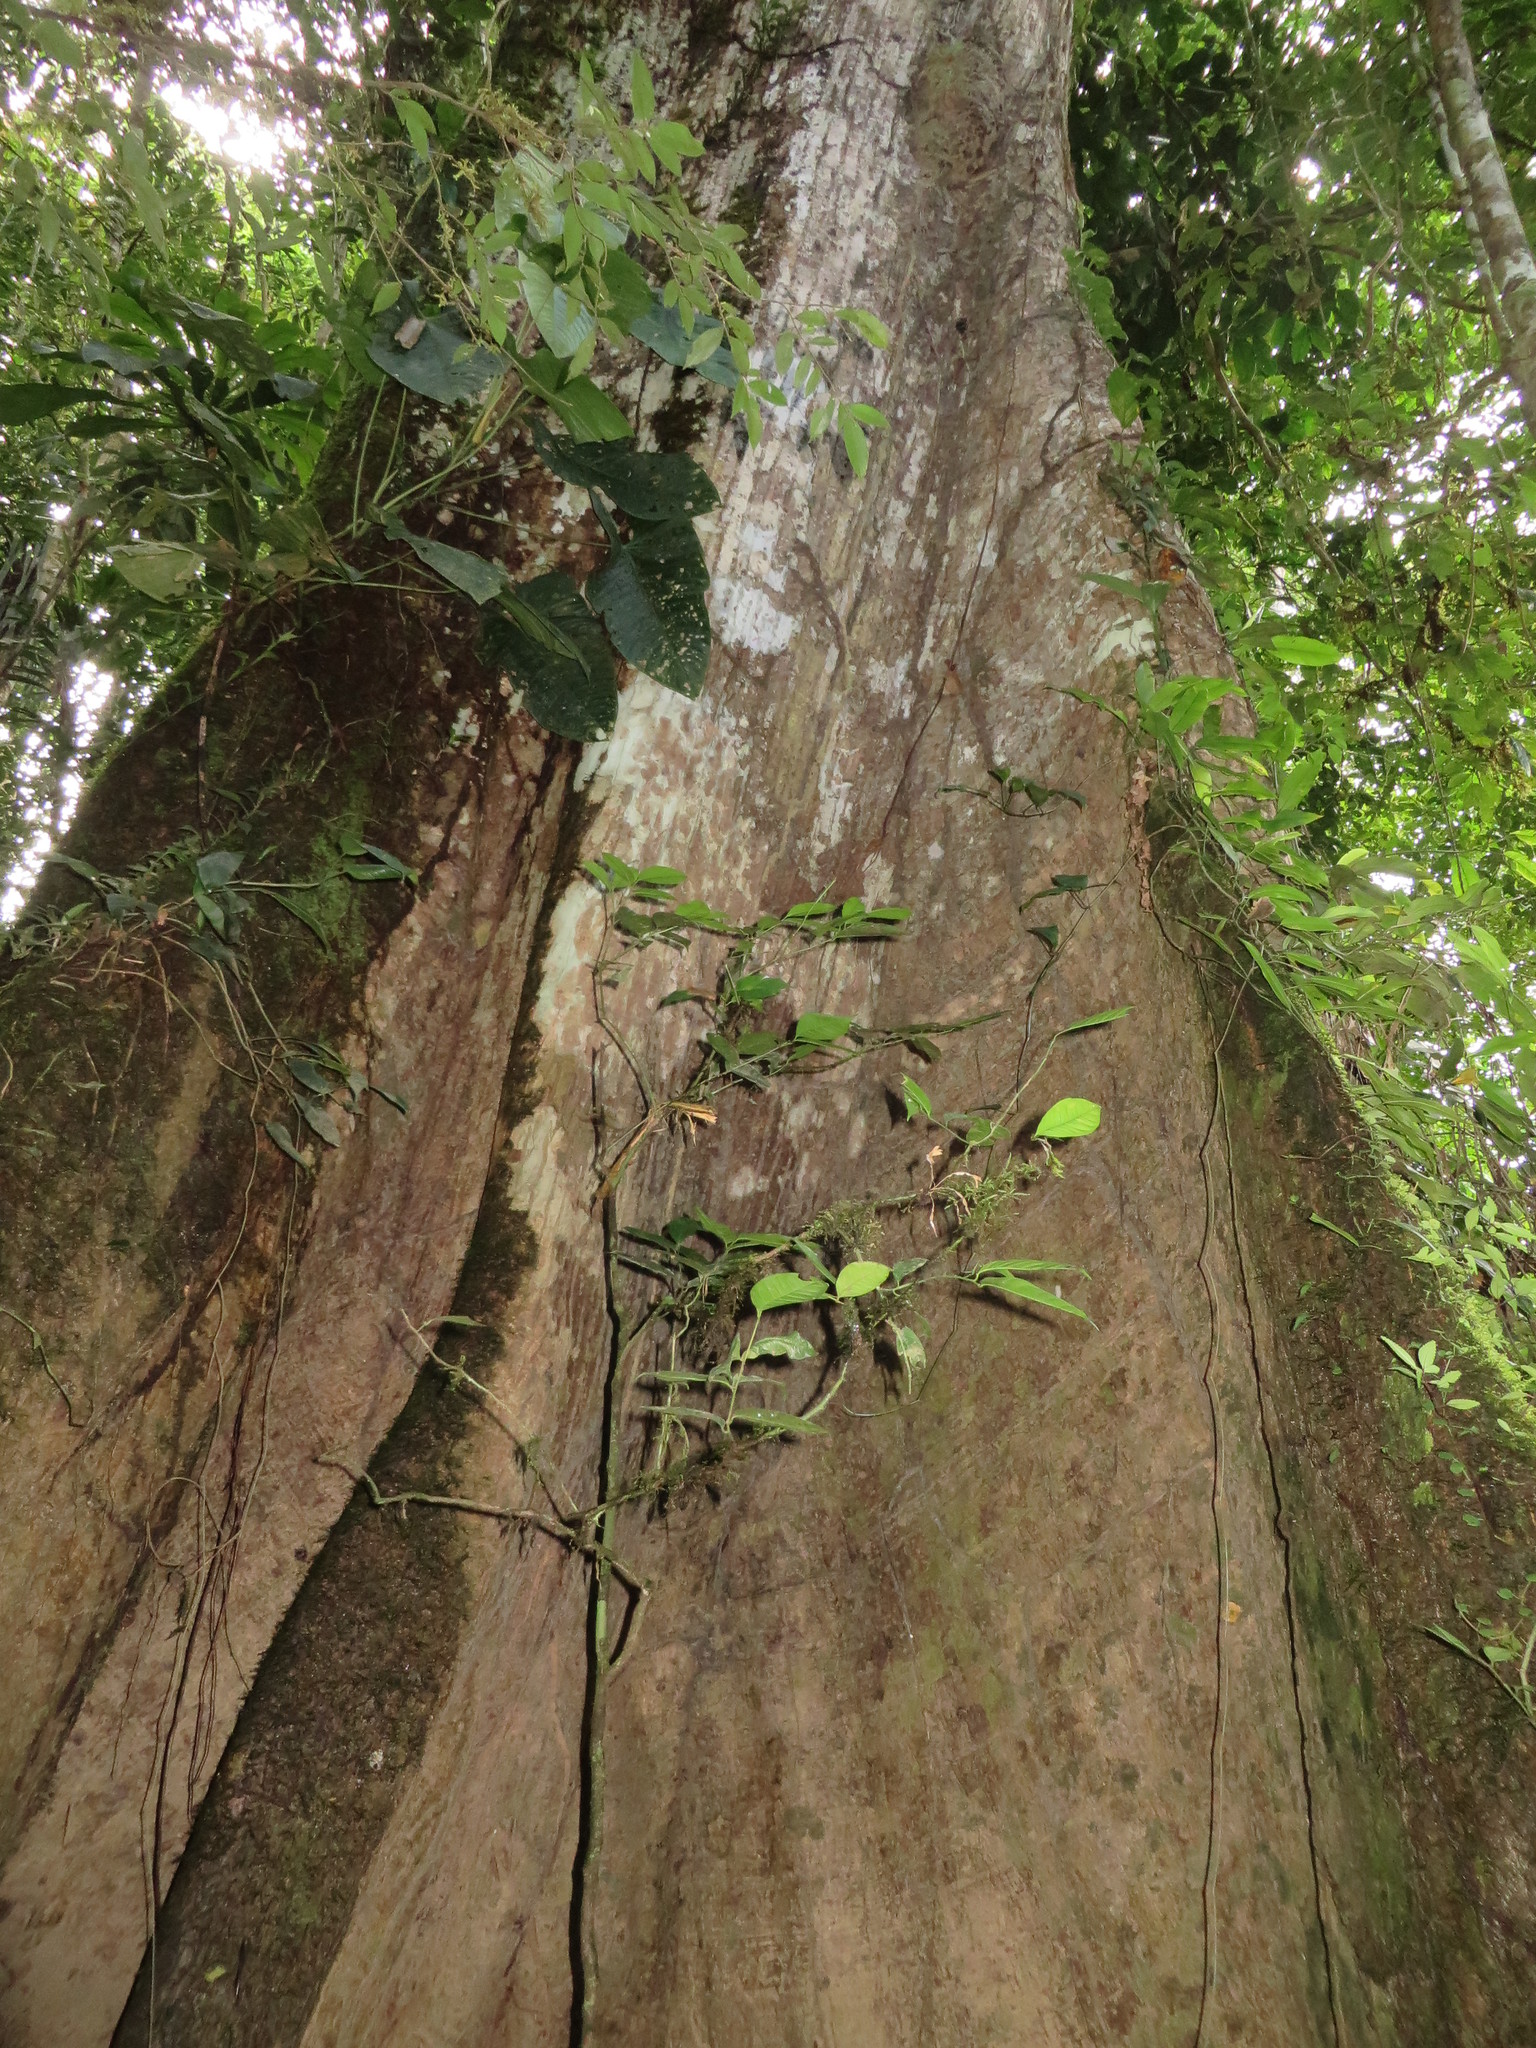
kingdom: Plantae
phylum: Tracheophyta
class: Magnoliopsida
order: Malvales
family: Malvaceae
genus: Ceiba
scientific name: Ceiba pentandra
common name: Kapok
